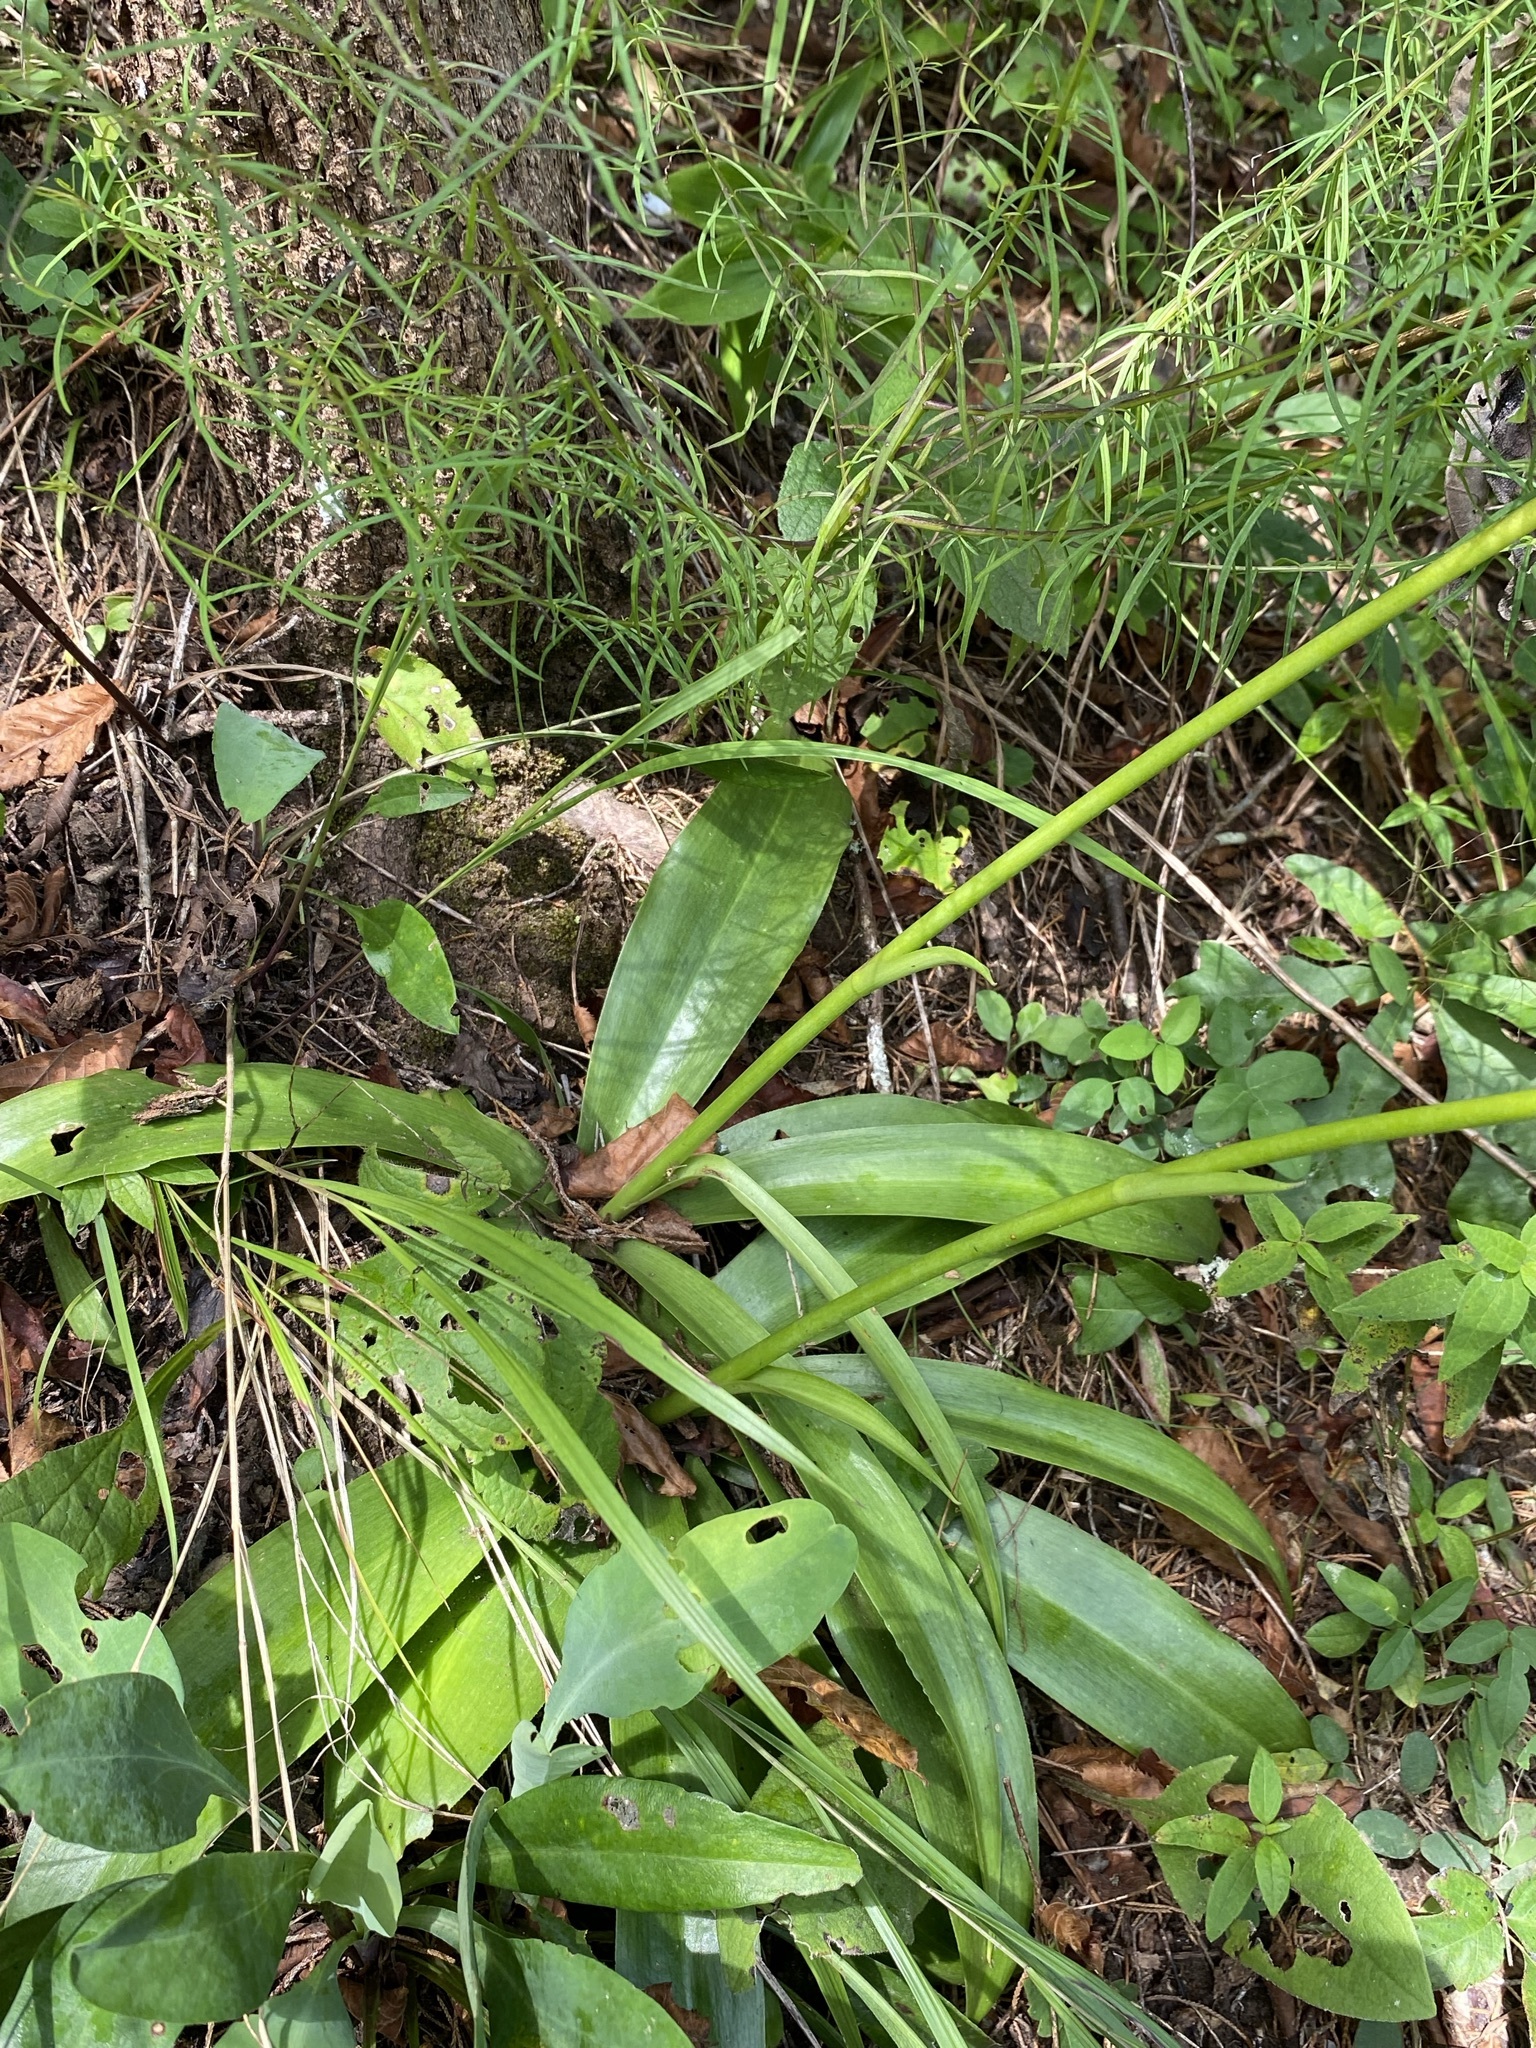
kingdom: Plantae
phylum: Tracheophyta
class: Liliopsida
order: Asparagales
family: Asparagaceae
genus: Agave
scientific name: Agave virginica
